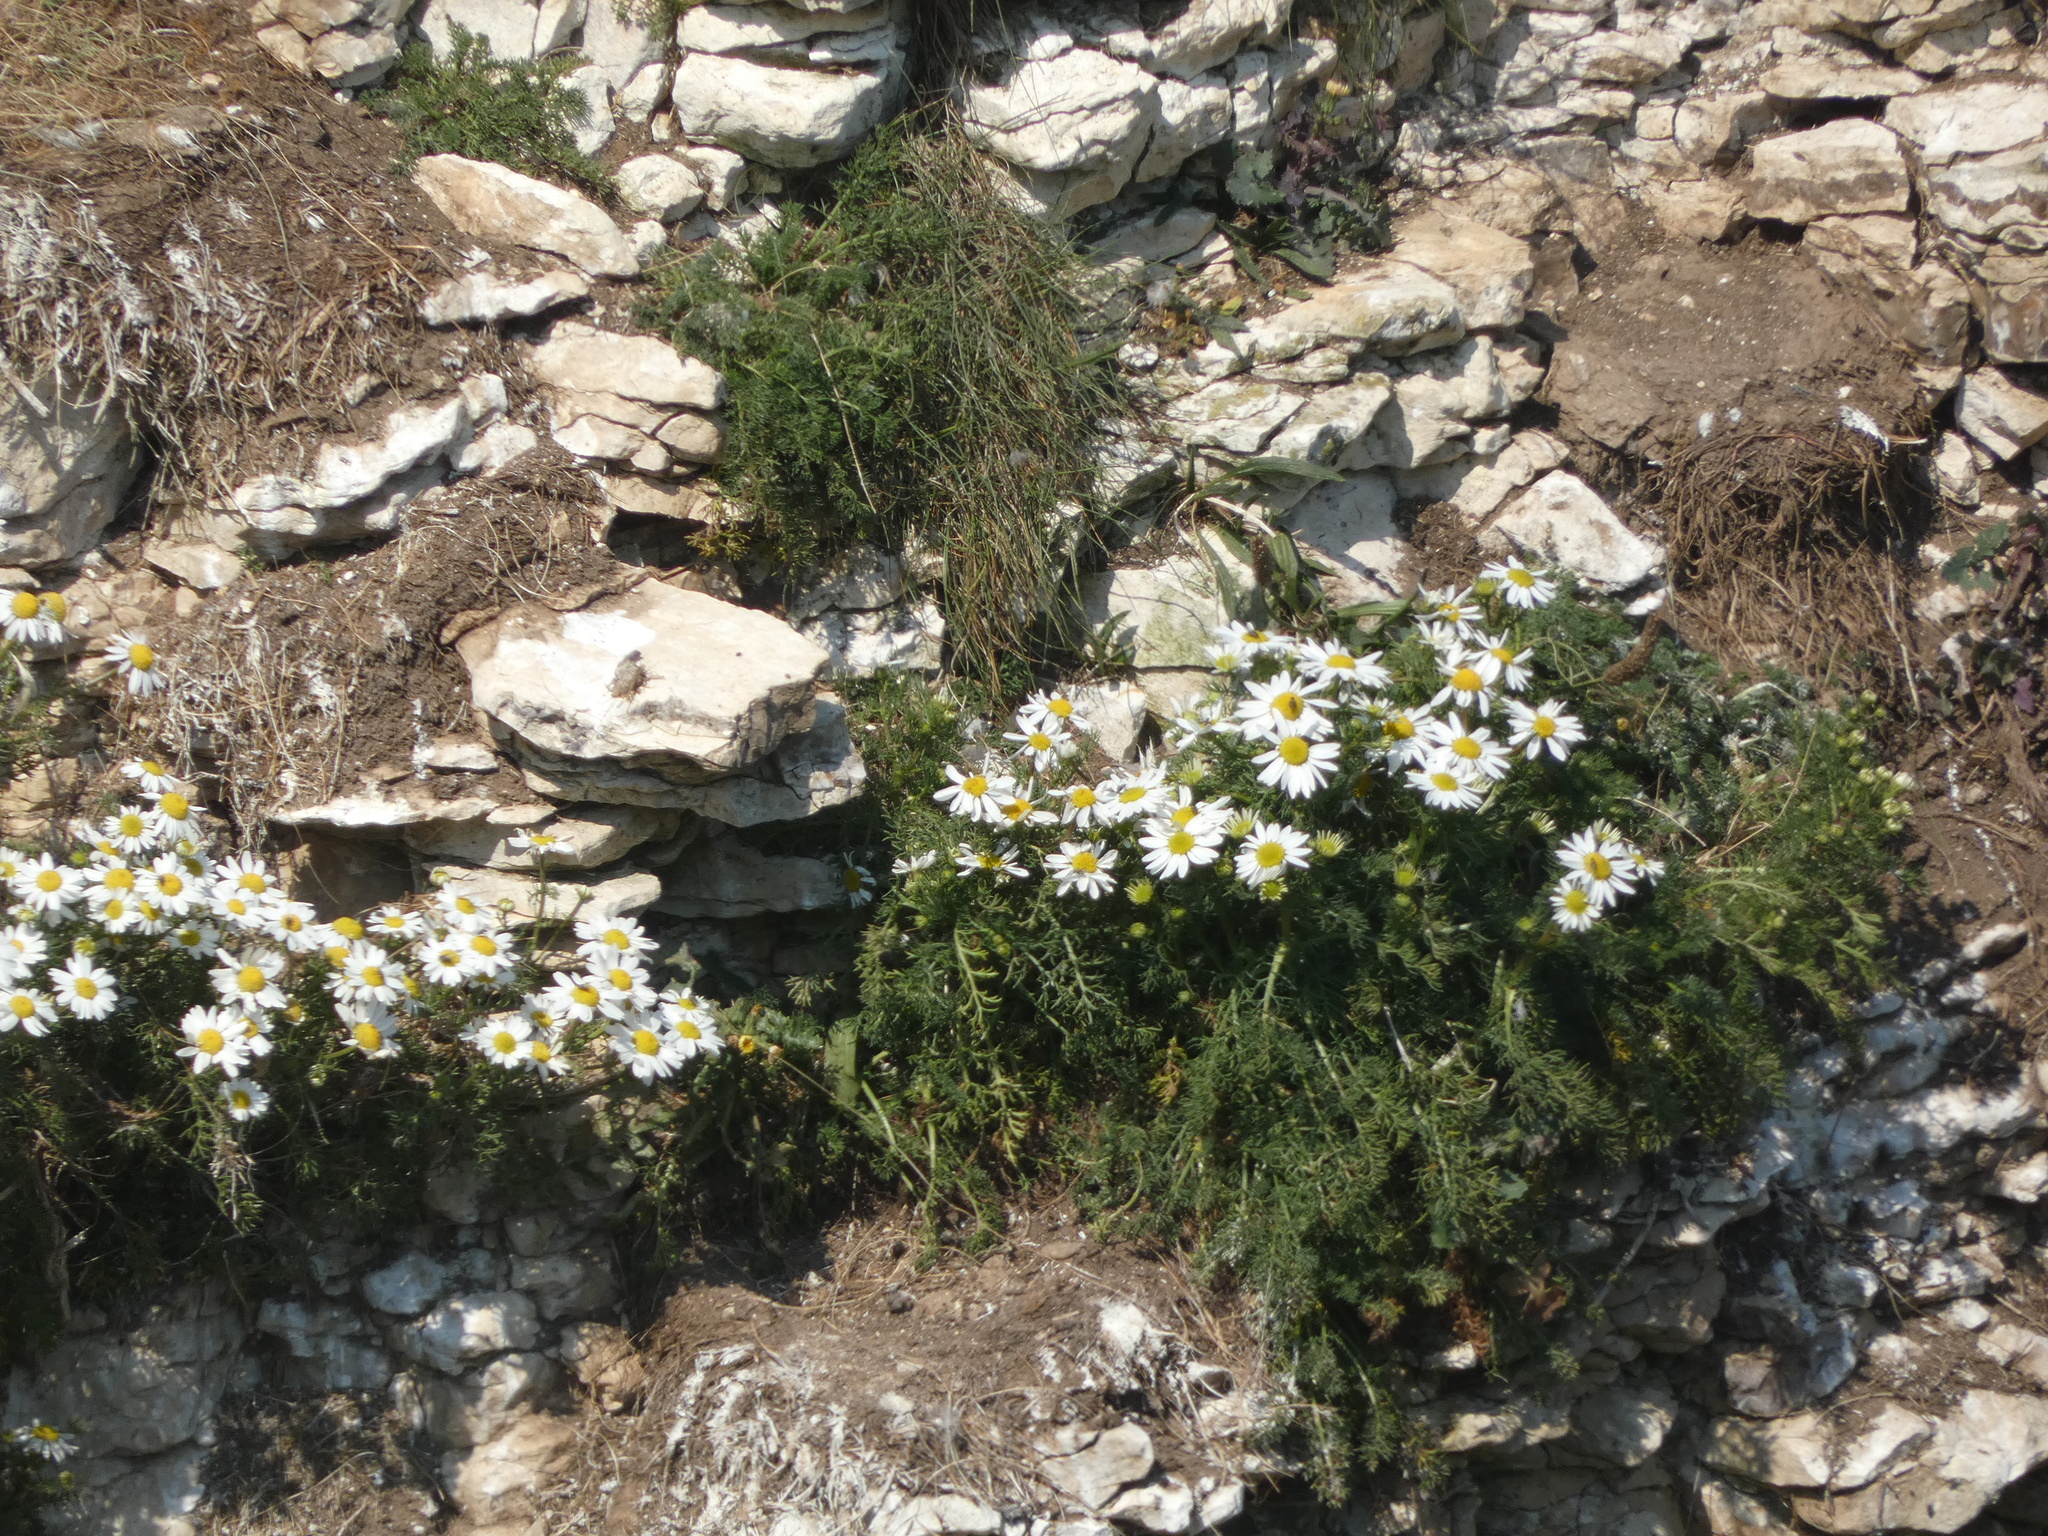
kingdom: Plantae
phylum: Tracheophyta
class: Magnoliopsida
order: Asterales
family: Asteraceae
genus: Tripleurospermum
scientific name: Tripleurospermum maritimum
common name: Sea mayweed
